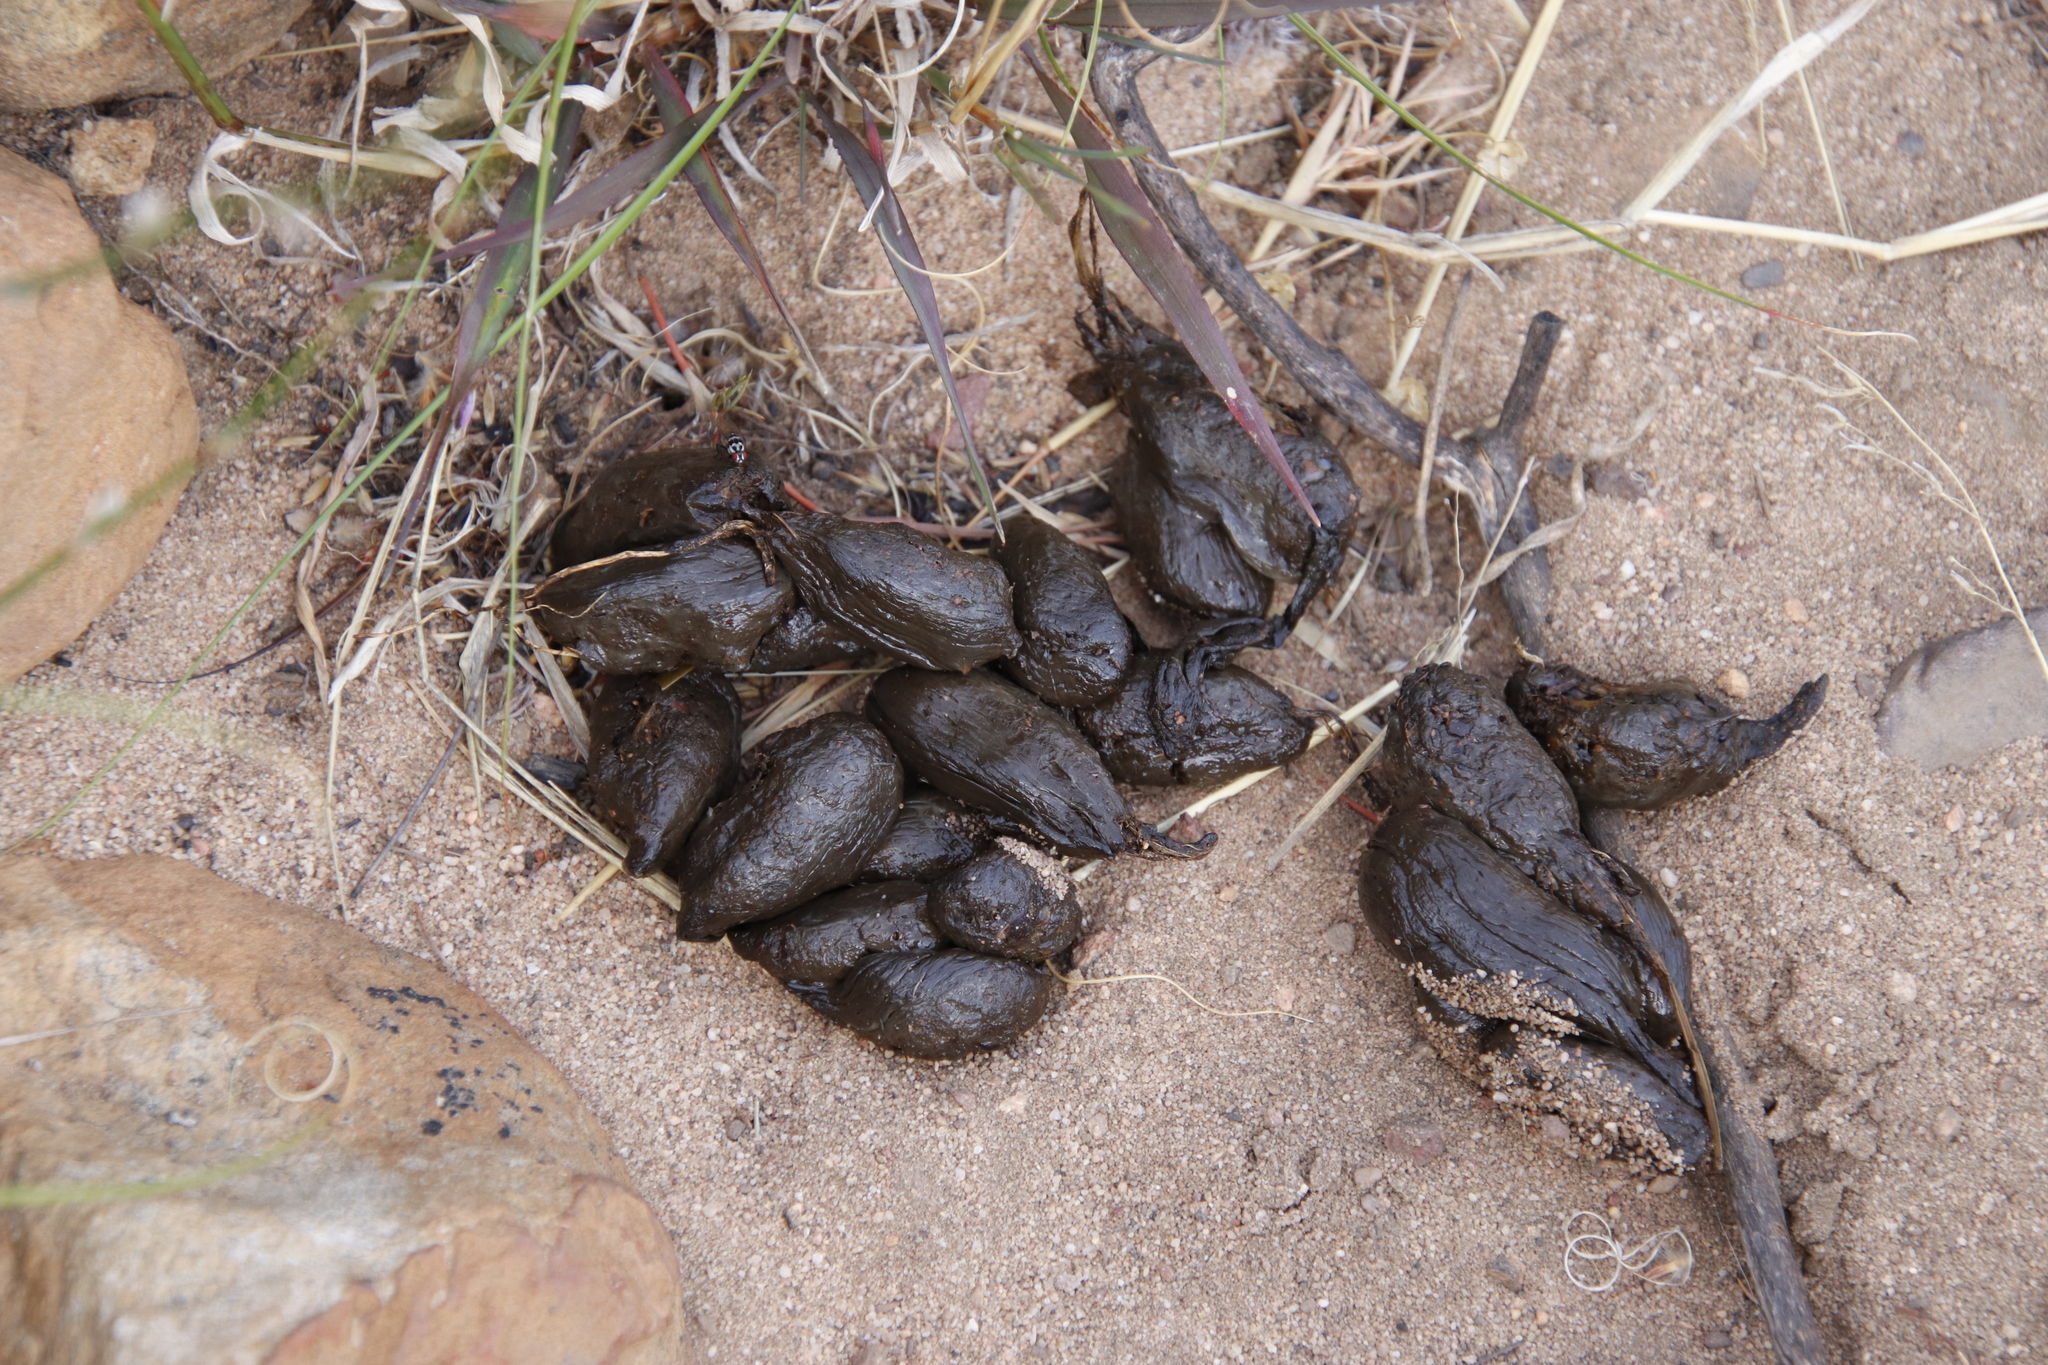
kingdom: Animalia
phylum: Chordata
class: Mammalia
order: Rodentia
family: Hystricidae
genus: Hystrix
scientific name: Hystrix africaeaustralis
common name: Cape porcupine
